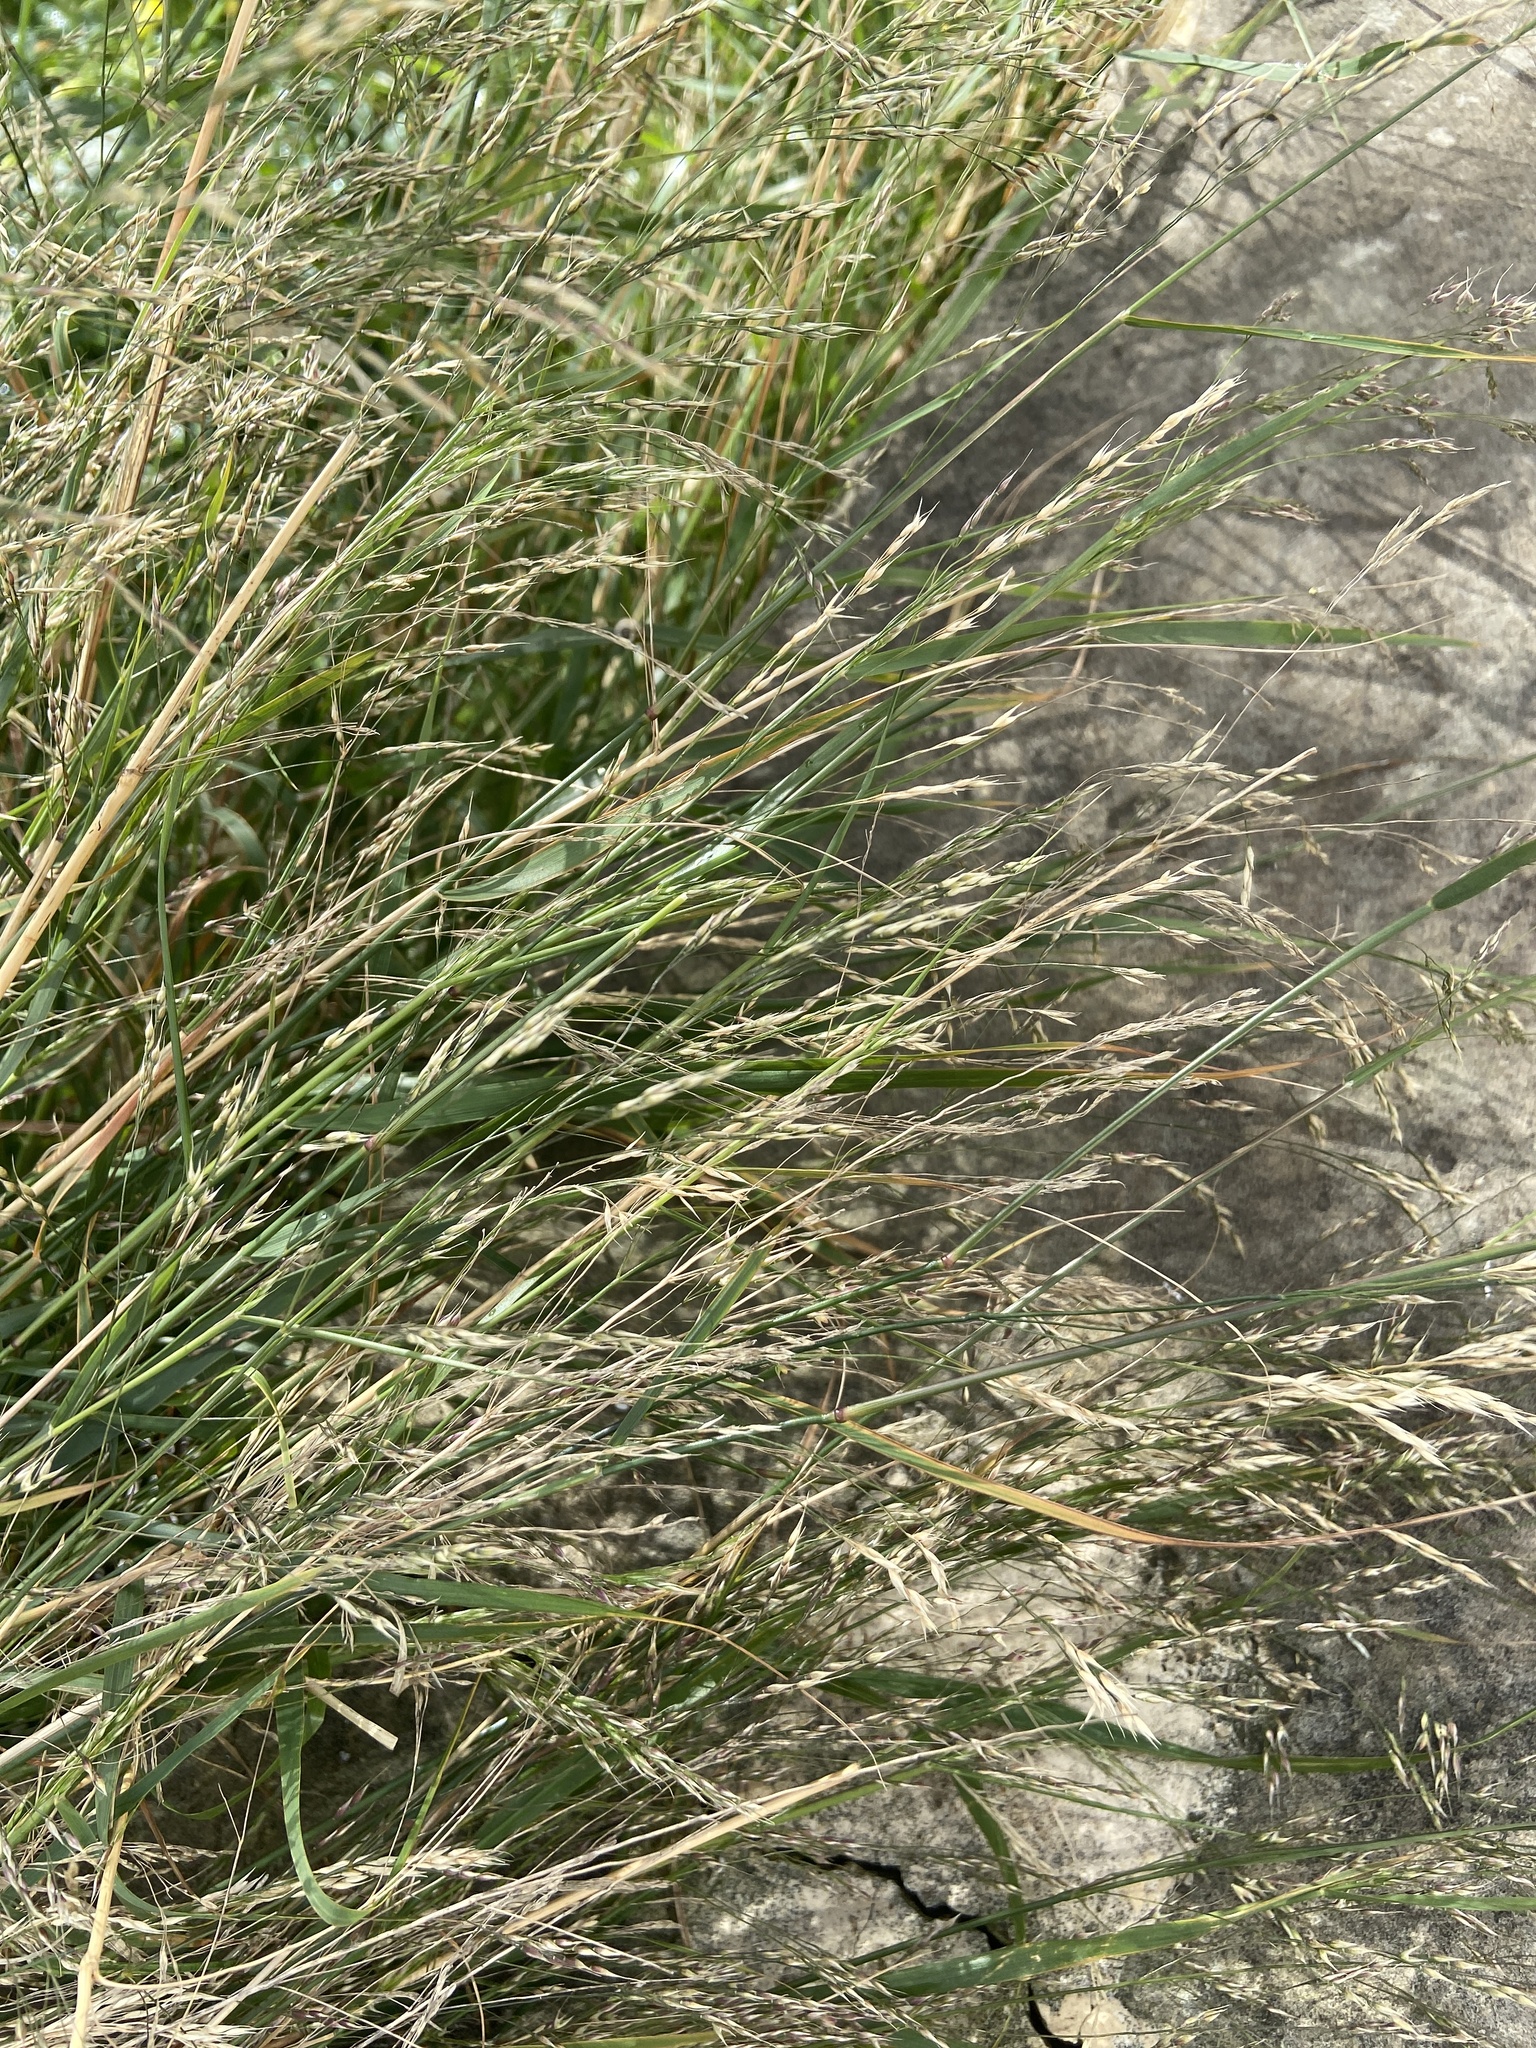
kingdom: Plantae
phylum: Tracheophyta
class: Liliopsida
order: Poales
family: Poaceae
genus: Oloptum
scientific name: Oloptum miliaceum
